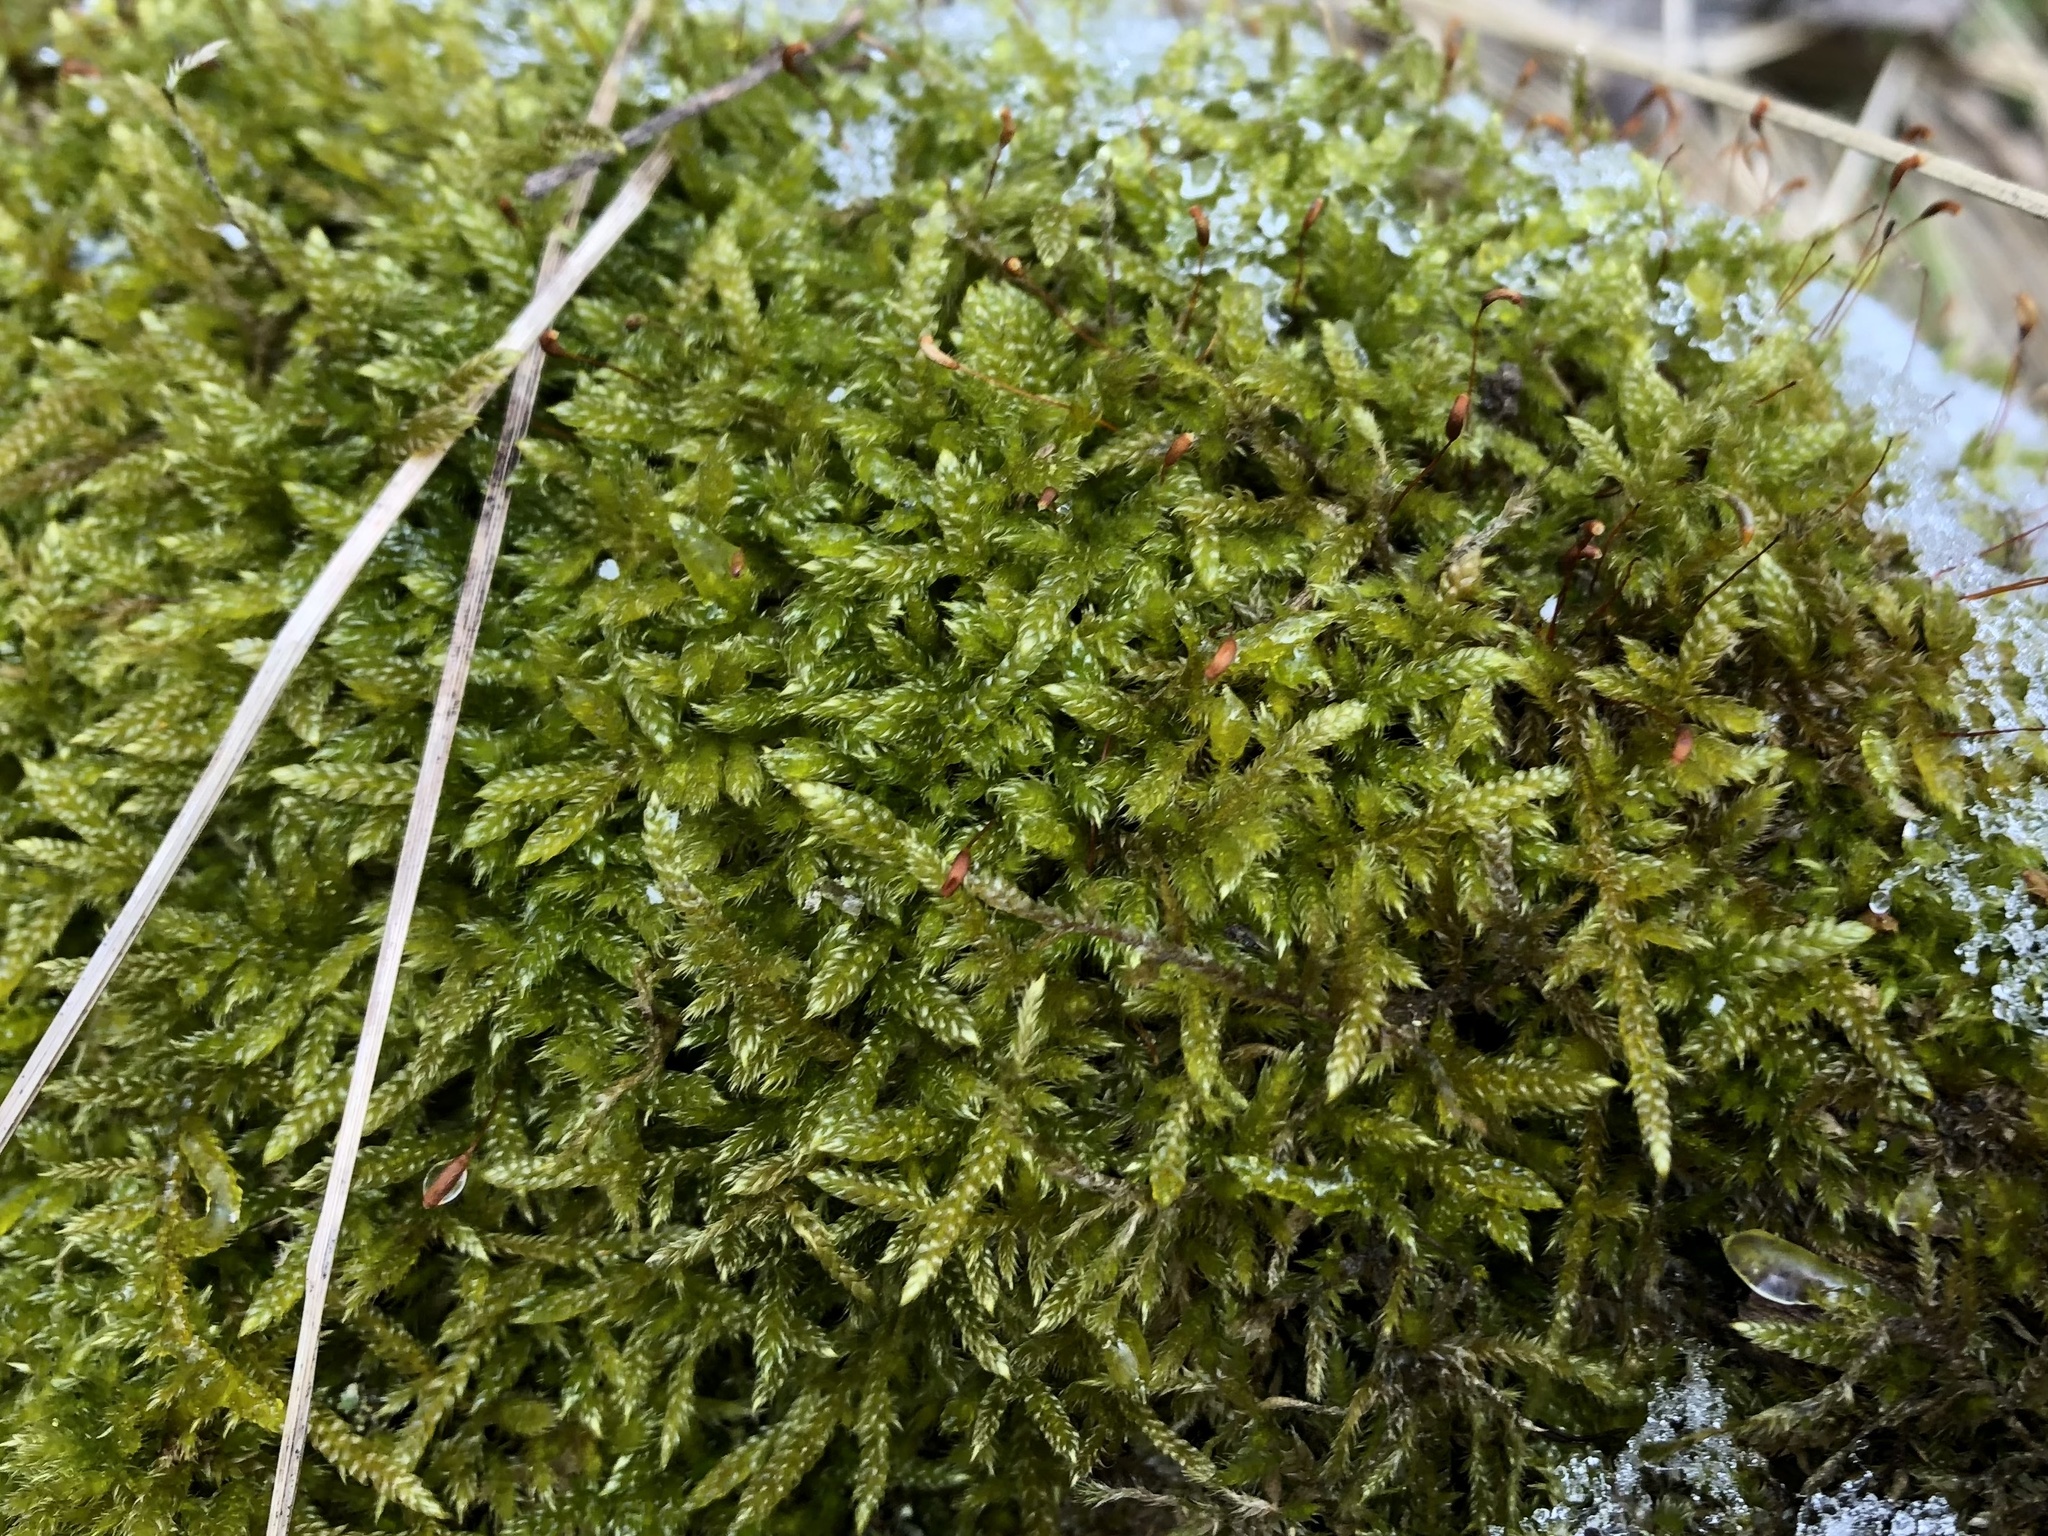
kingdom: Plantae
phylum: Bryophyta
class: Bryopsida
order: Hypnales
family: Hypnaceae
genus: Hypnum
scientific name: Hypnum cupressiforme
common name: Cypress-leaved plait-moss
